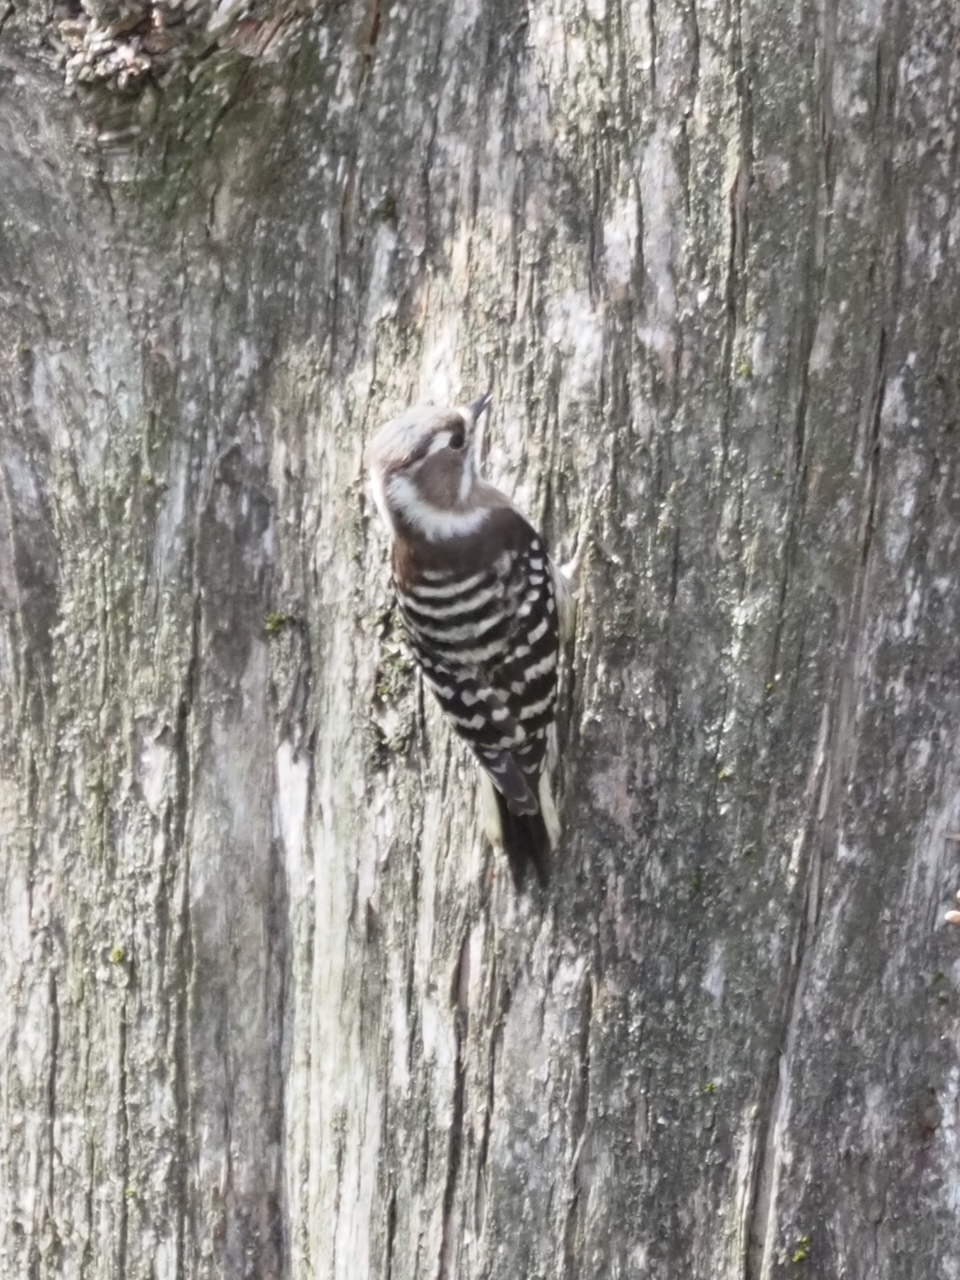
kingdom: Animalia
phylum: Chordata
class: Aves
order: Piciformes
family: Picidae
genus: Yungipicus
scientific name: Yungipicus kizuki
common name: Japanese pygmy woodpecker
